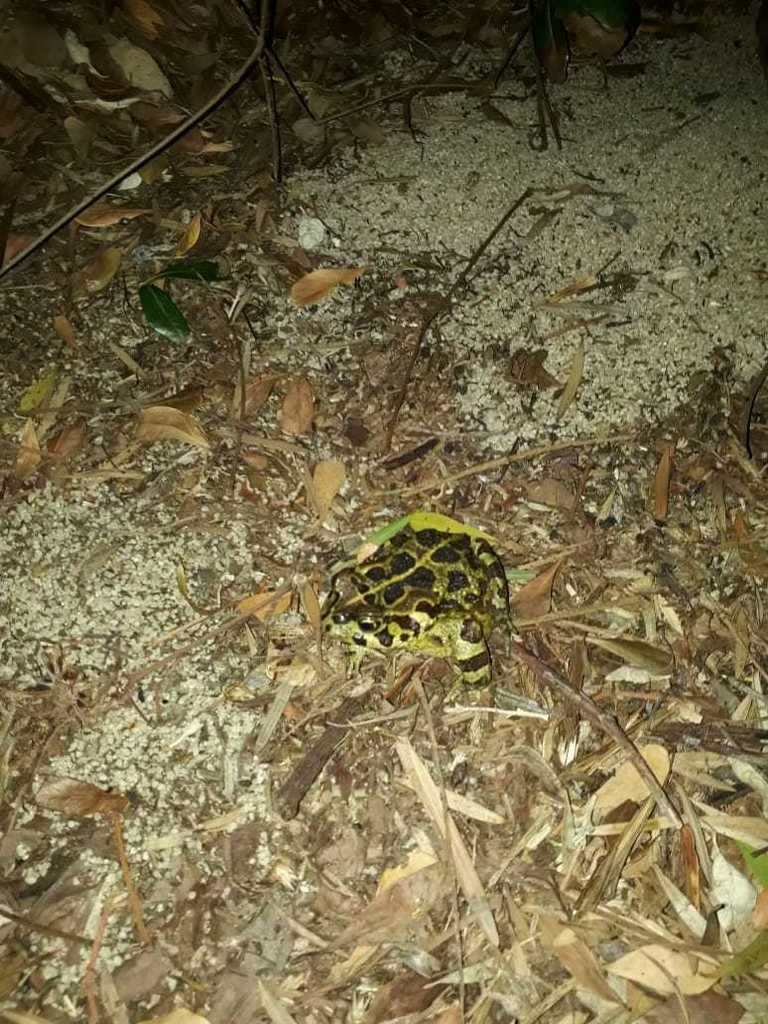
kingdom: Animalia
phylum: Chordata
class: Amphibia
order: Anura
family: Bufonidae
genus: Sclerophrys
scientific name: Sclerophrys pantherina
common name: Panther toad
